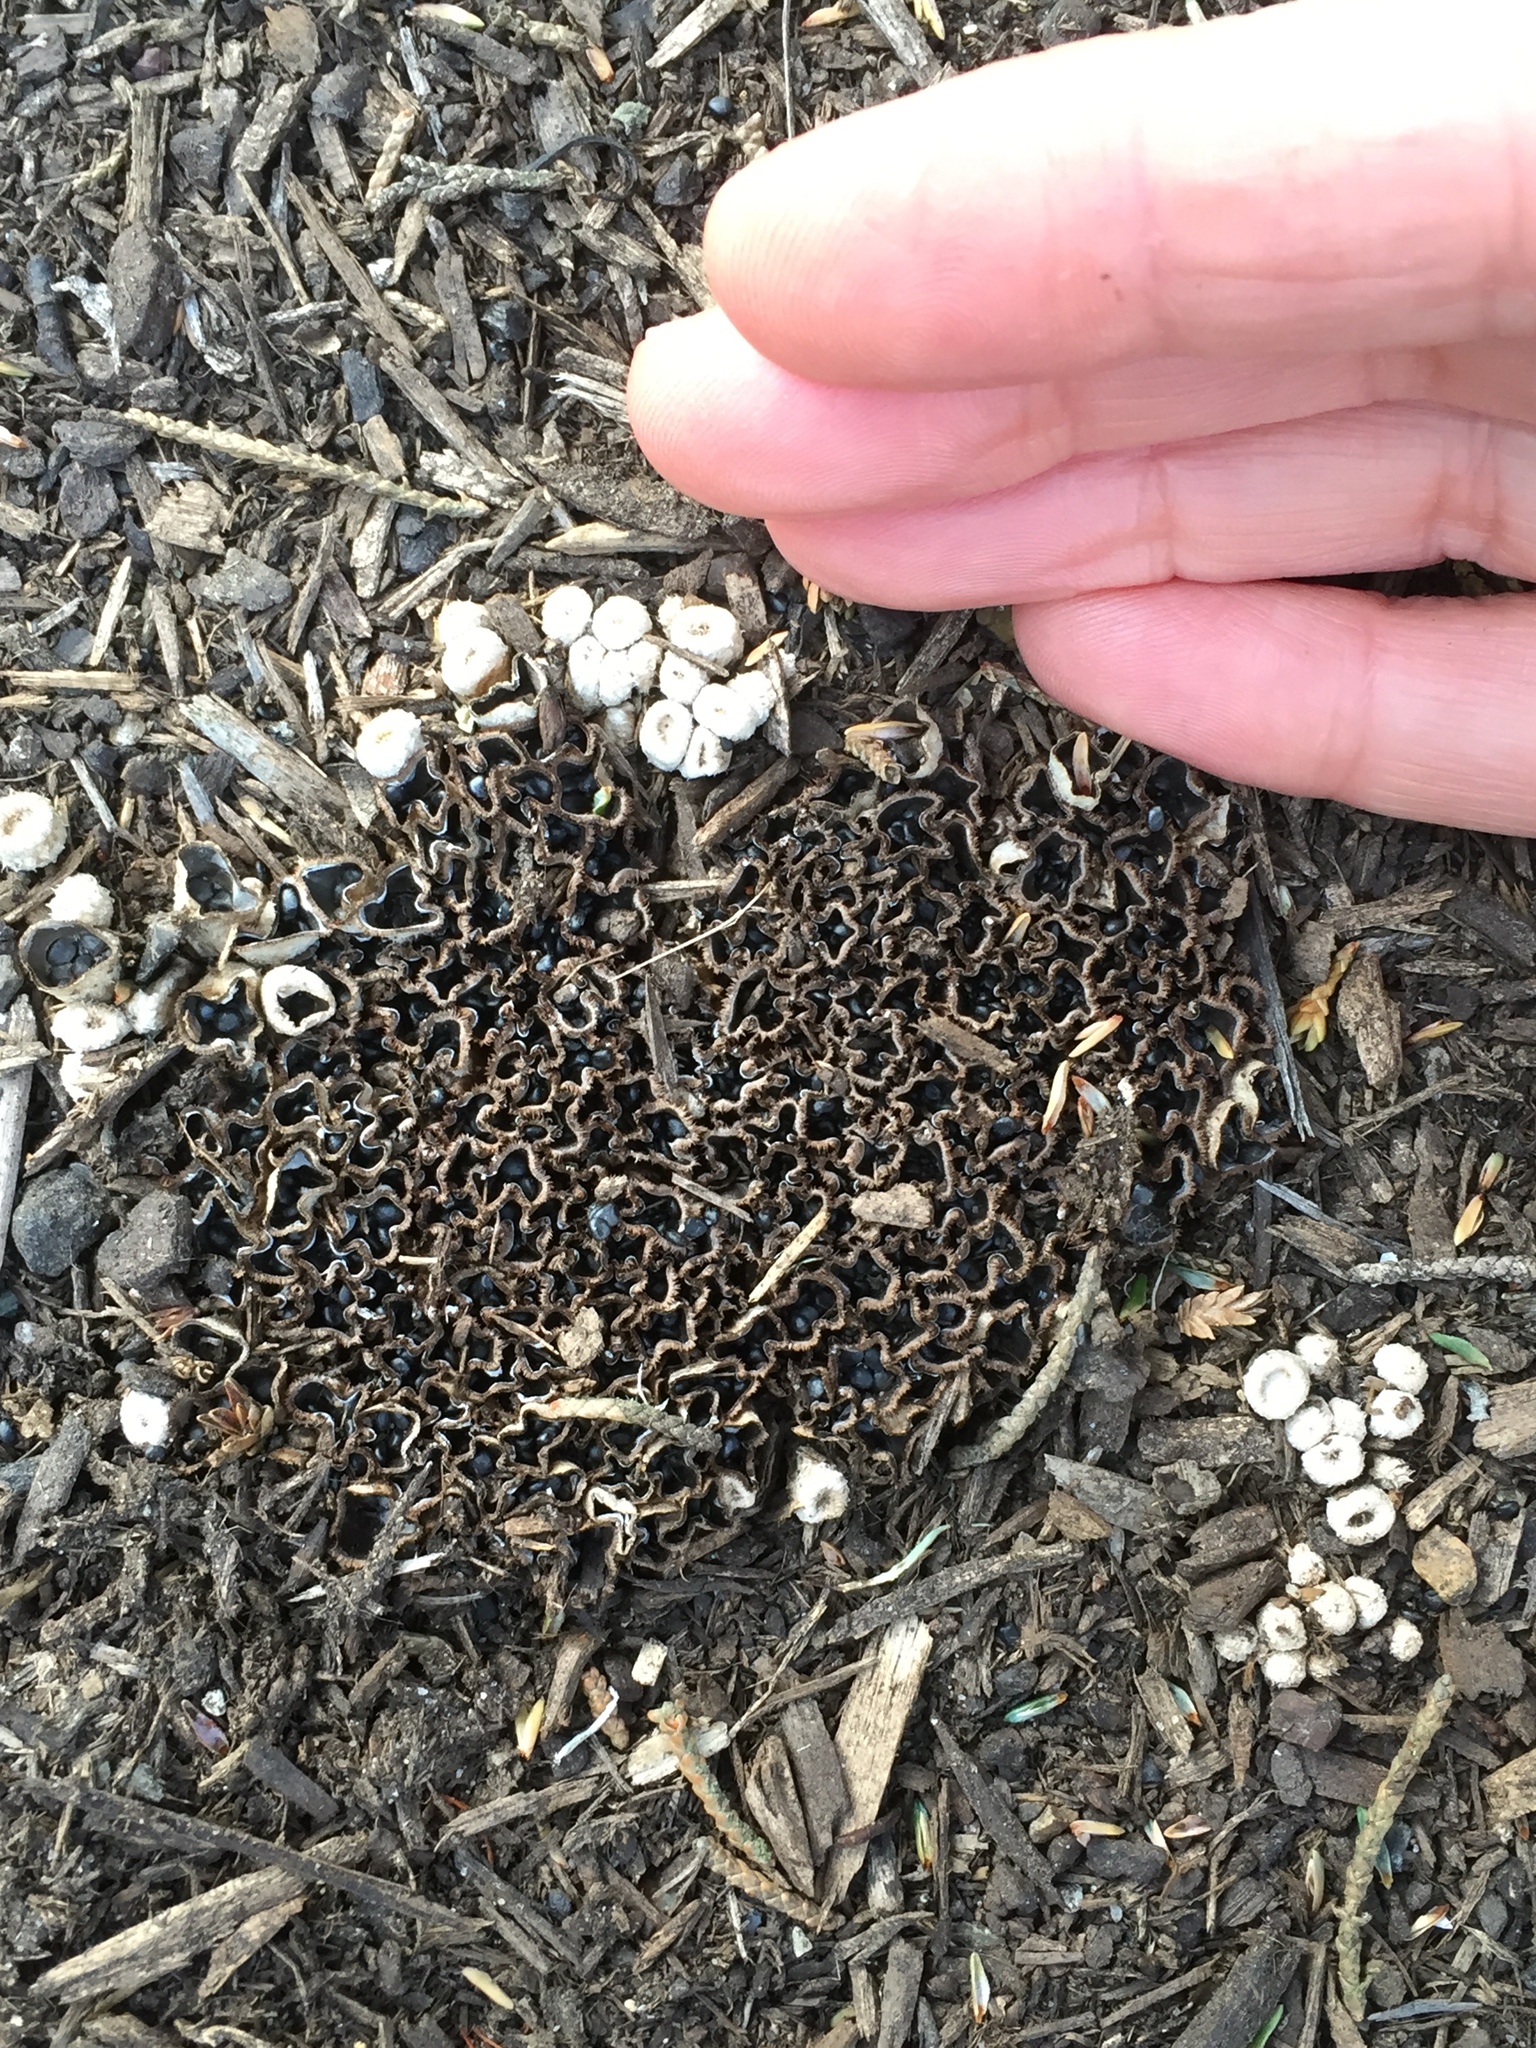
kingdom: Fungi
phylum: Basidiomycota
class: Agaricomycetes
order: Agaricales
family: Agaricaceae
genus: Cyathus
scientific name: Cyathus olla
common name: Field bird's nest
